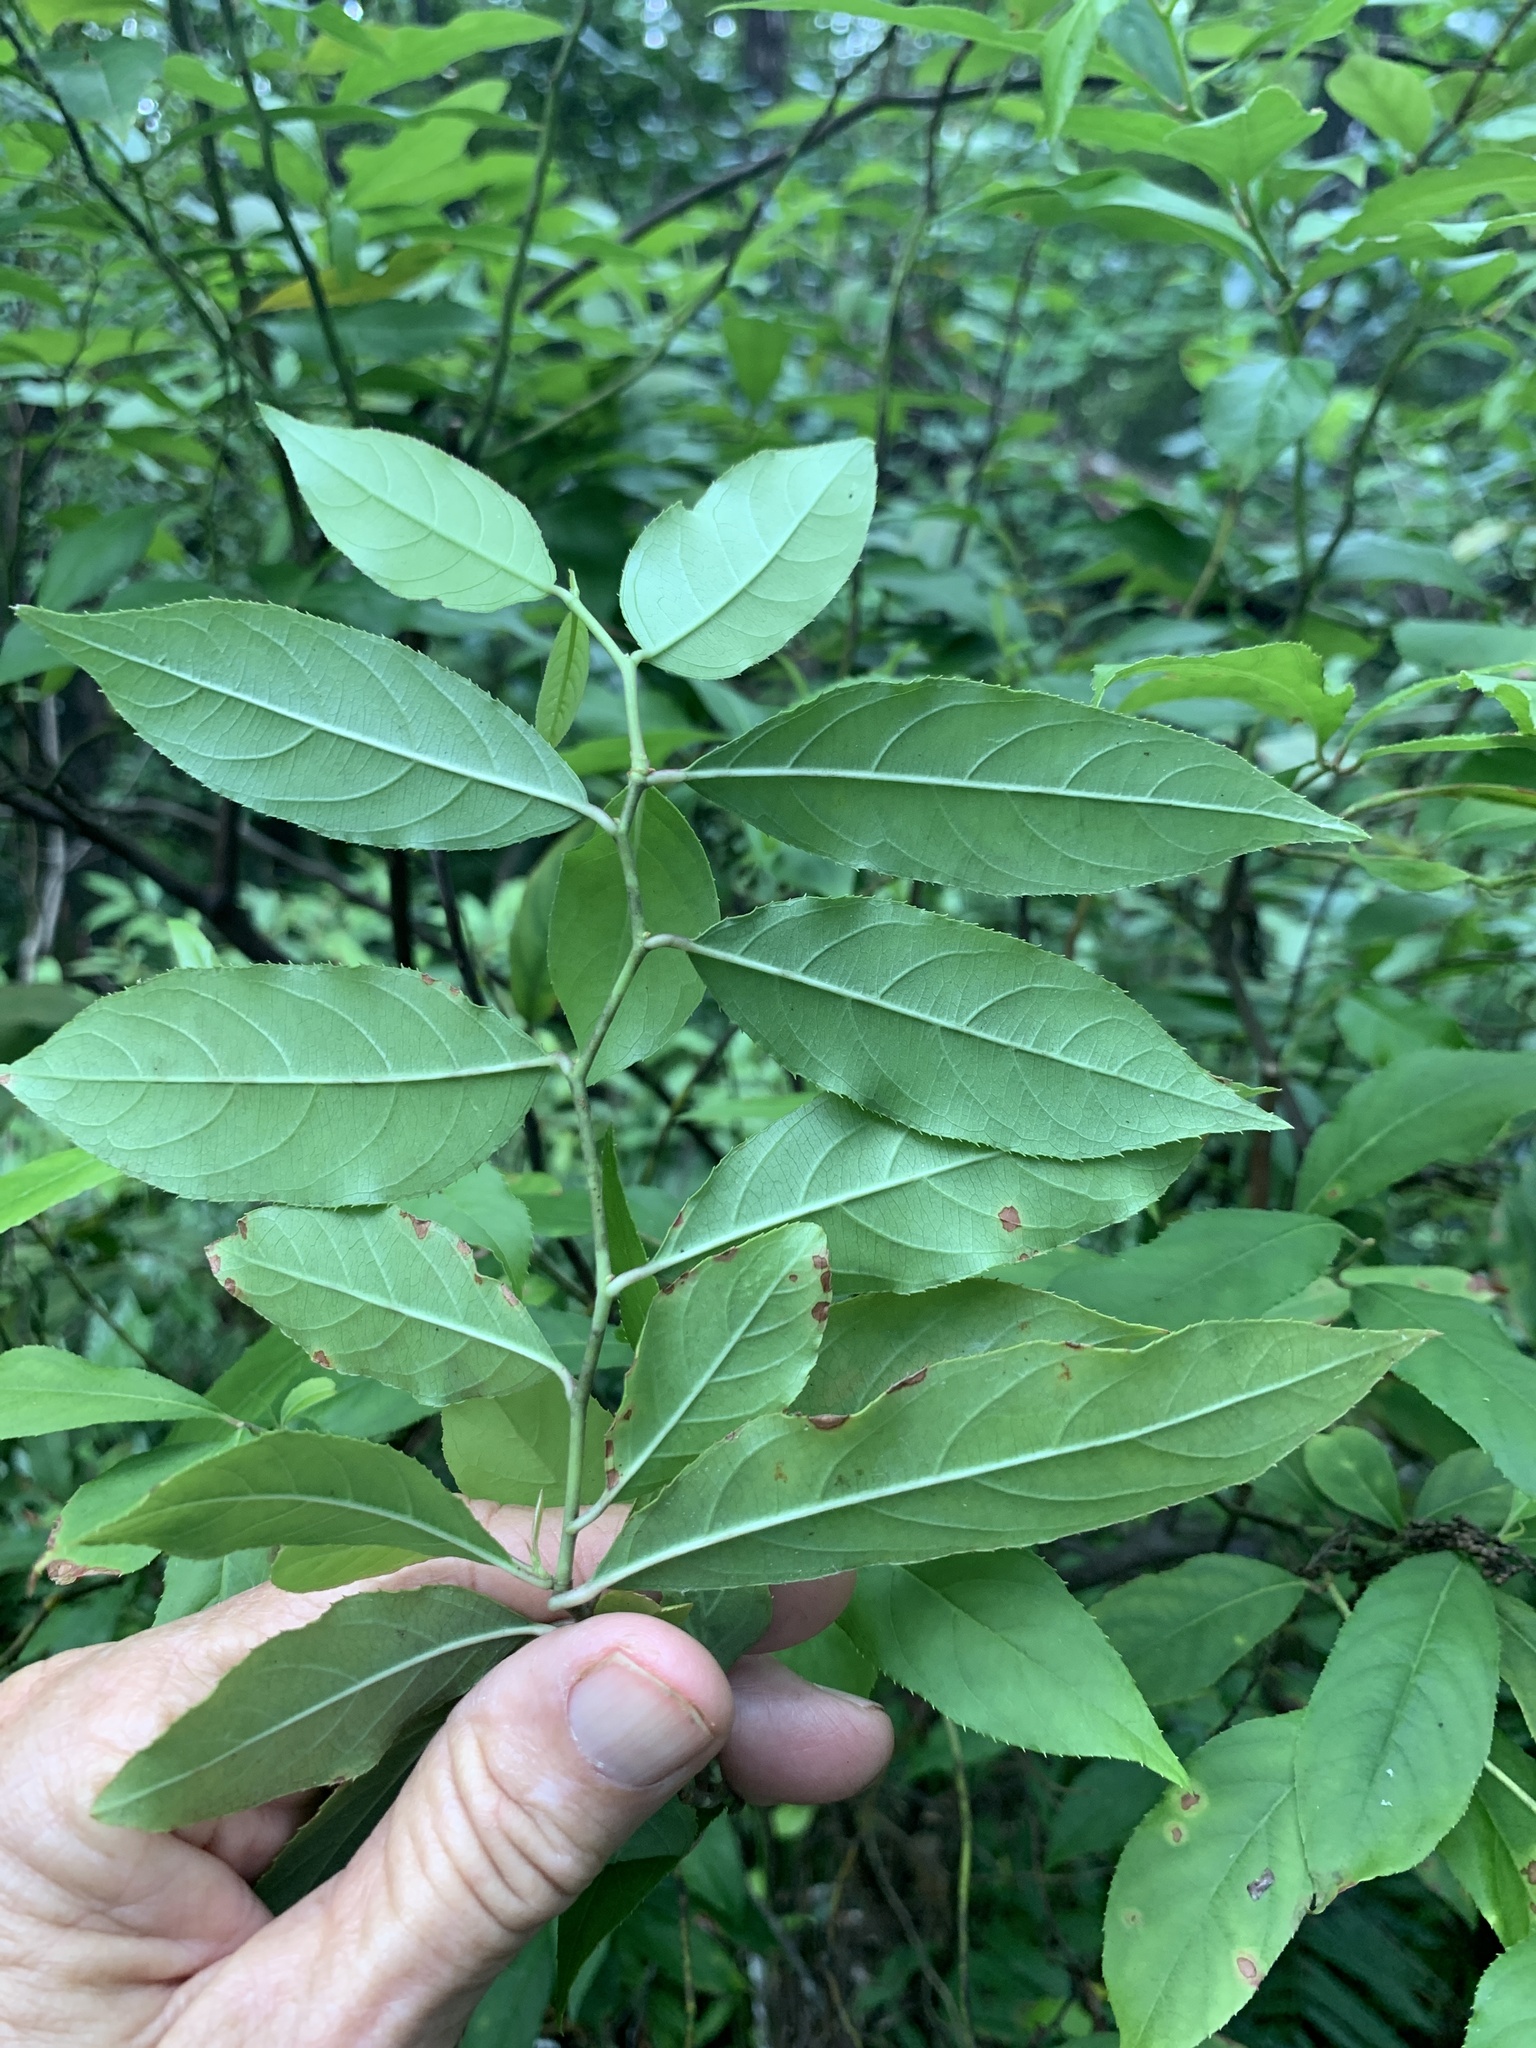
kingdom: Plantae
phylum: Tracheophyta
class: Magnoliopsida
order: Saxifragales
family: Iteaceae
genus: Itea
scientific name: Itea virginica
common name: Sweetspire
